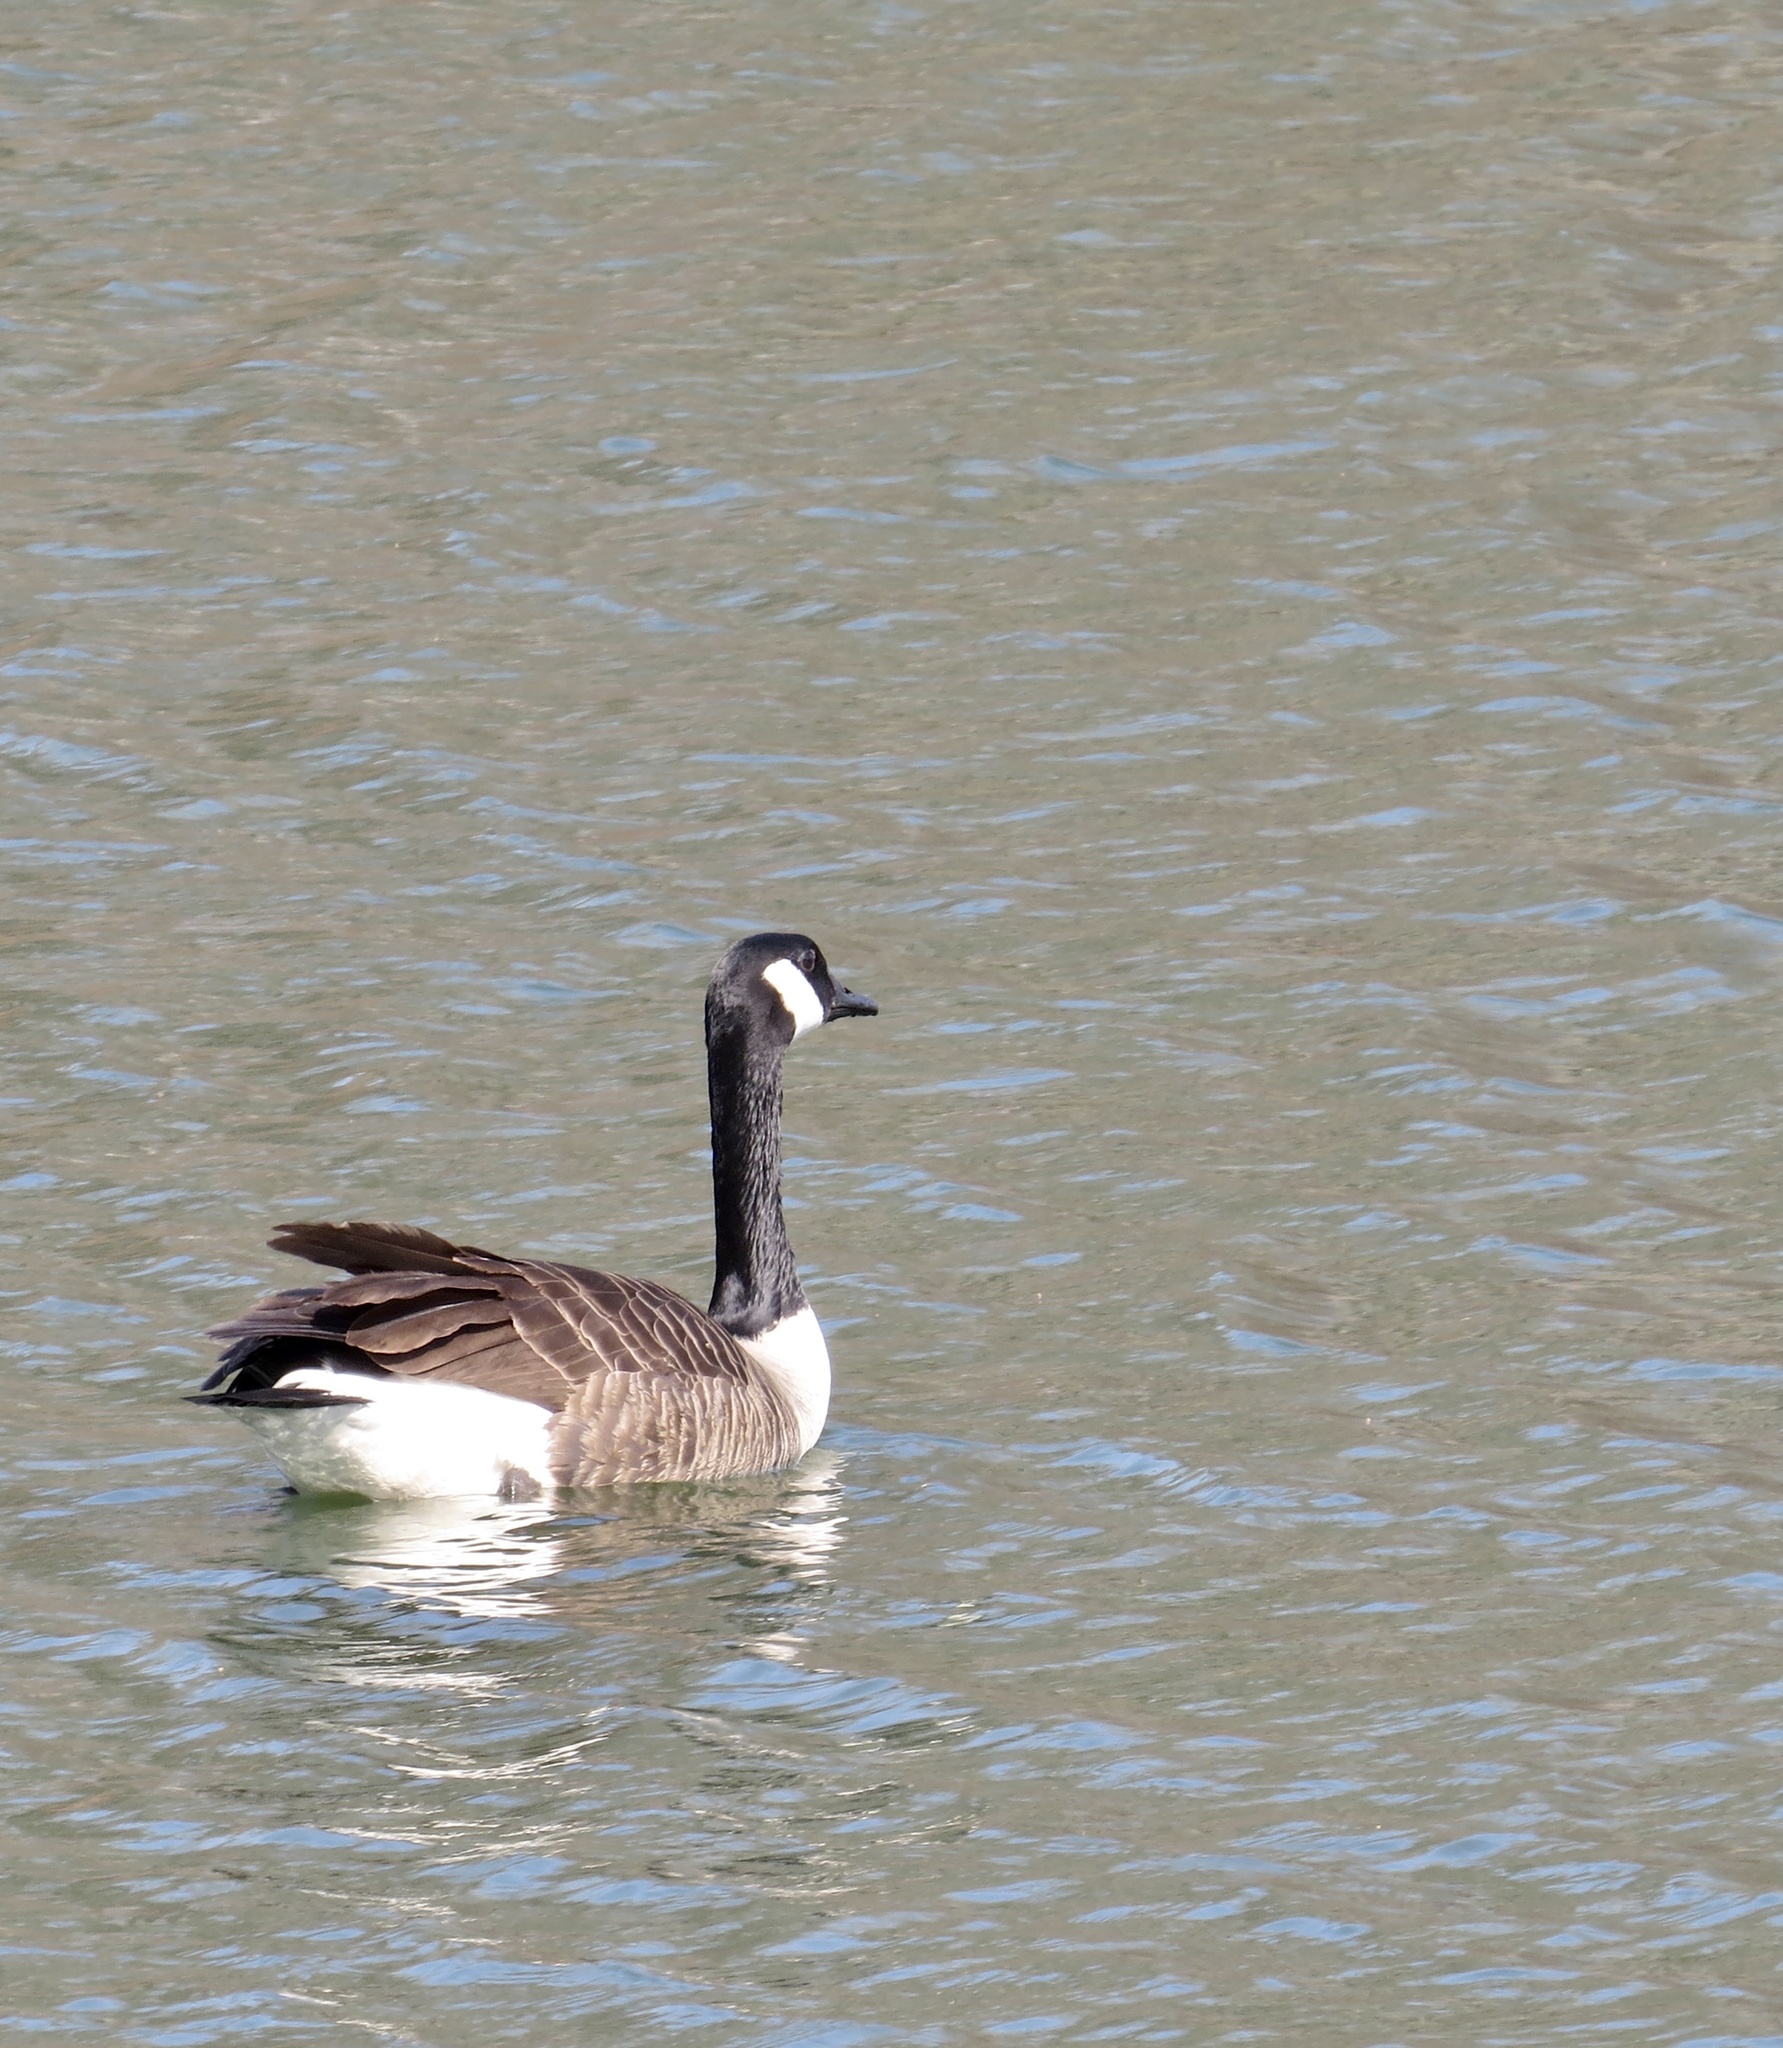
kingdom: Animalia
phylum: Chordata
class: Aves
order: Anseriformes
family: Anatidae
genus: Branta
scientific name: Branta canadensis
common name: Canada goose
